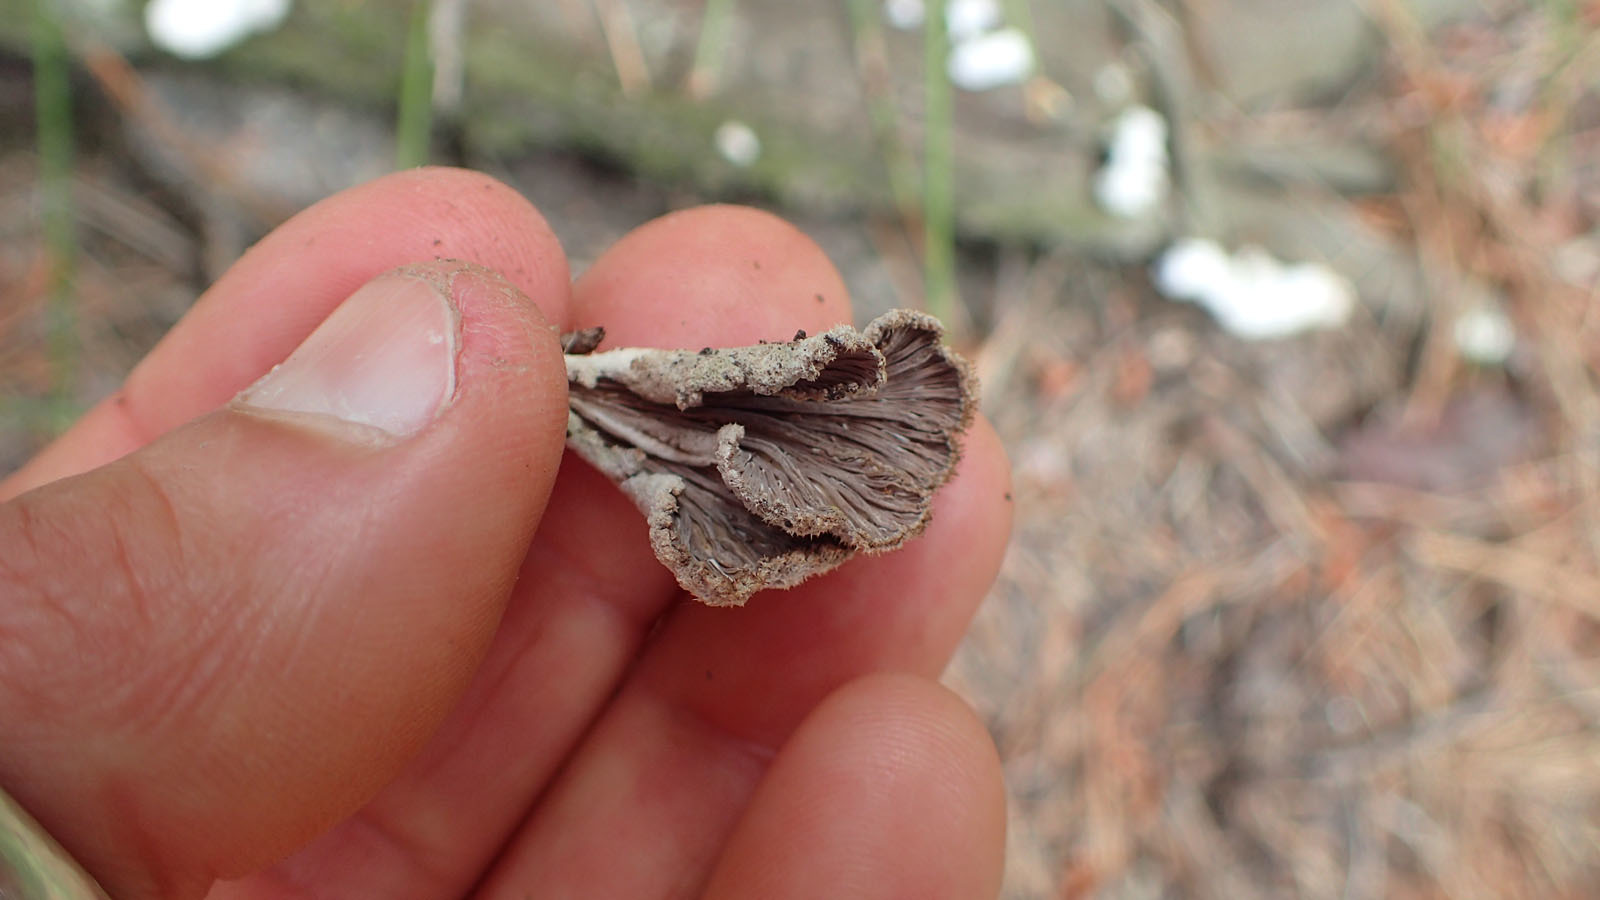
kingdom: Fungi
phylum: Basidiomycota
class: Agaricomycetes
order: Agaricales
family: Schizophyllaceae
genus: Schizophyllum
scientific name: Schizophyllum commune
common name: Common porecrust
